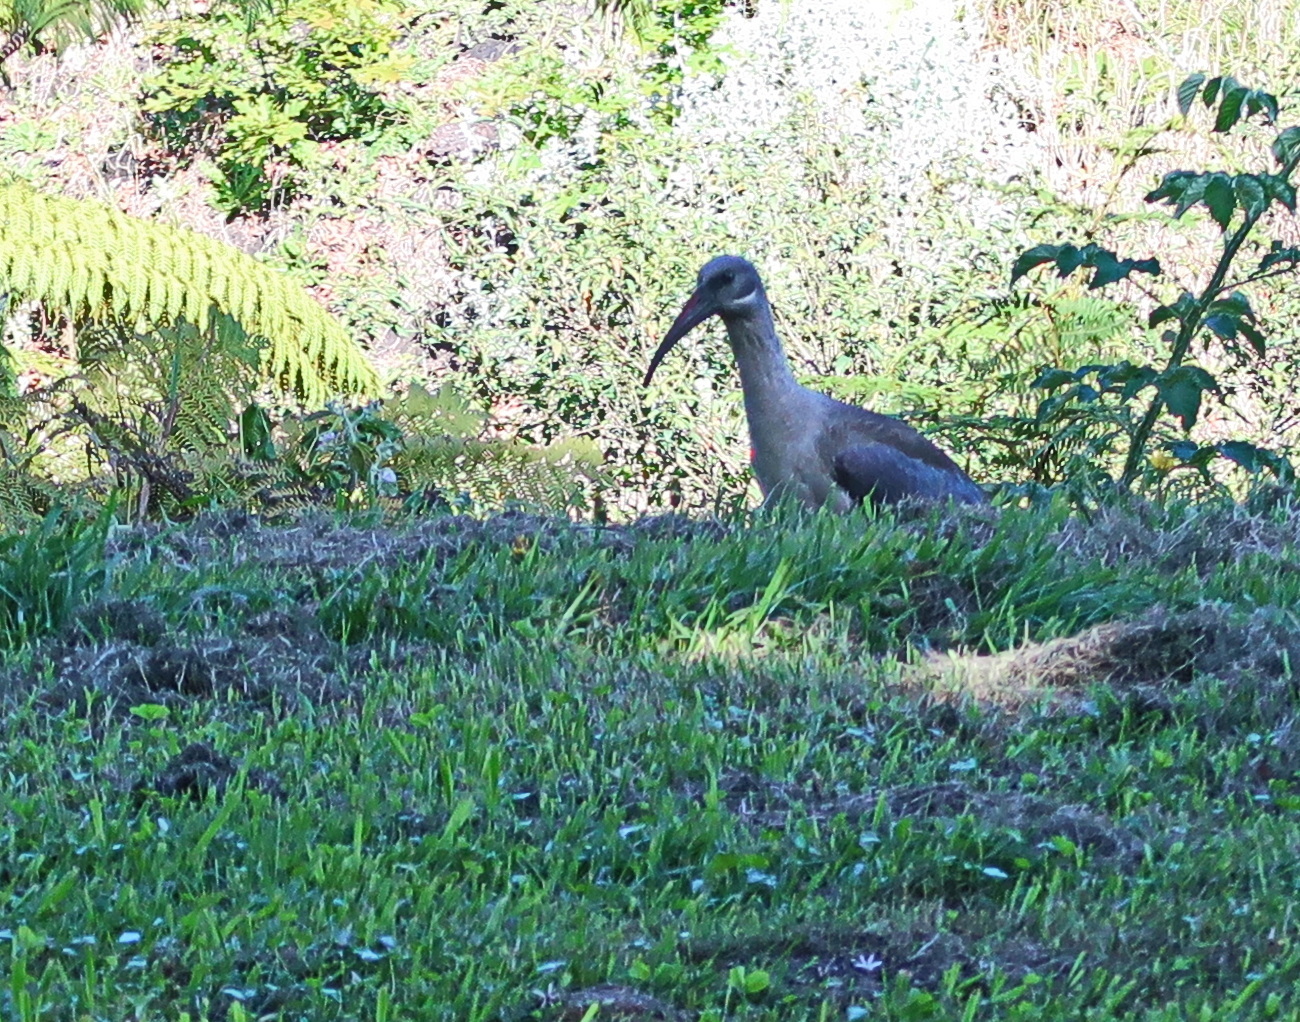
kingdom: Animalia
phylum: Chordata
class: Aves
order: Pelecaniformes
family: Threskiornithidae
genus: Bostrychia
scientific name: Bostrychia hagedash
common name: Hadada ibis
